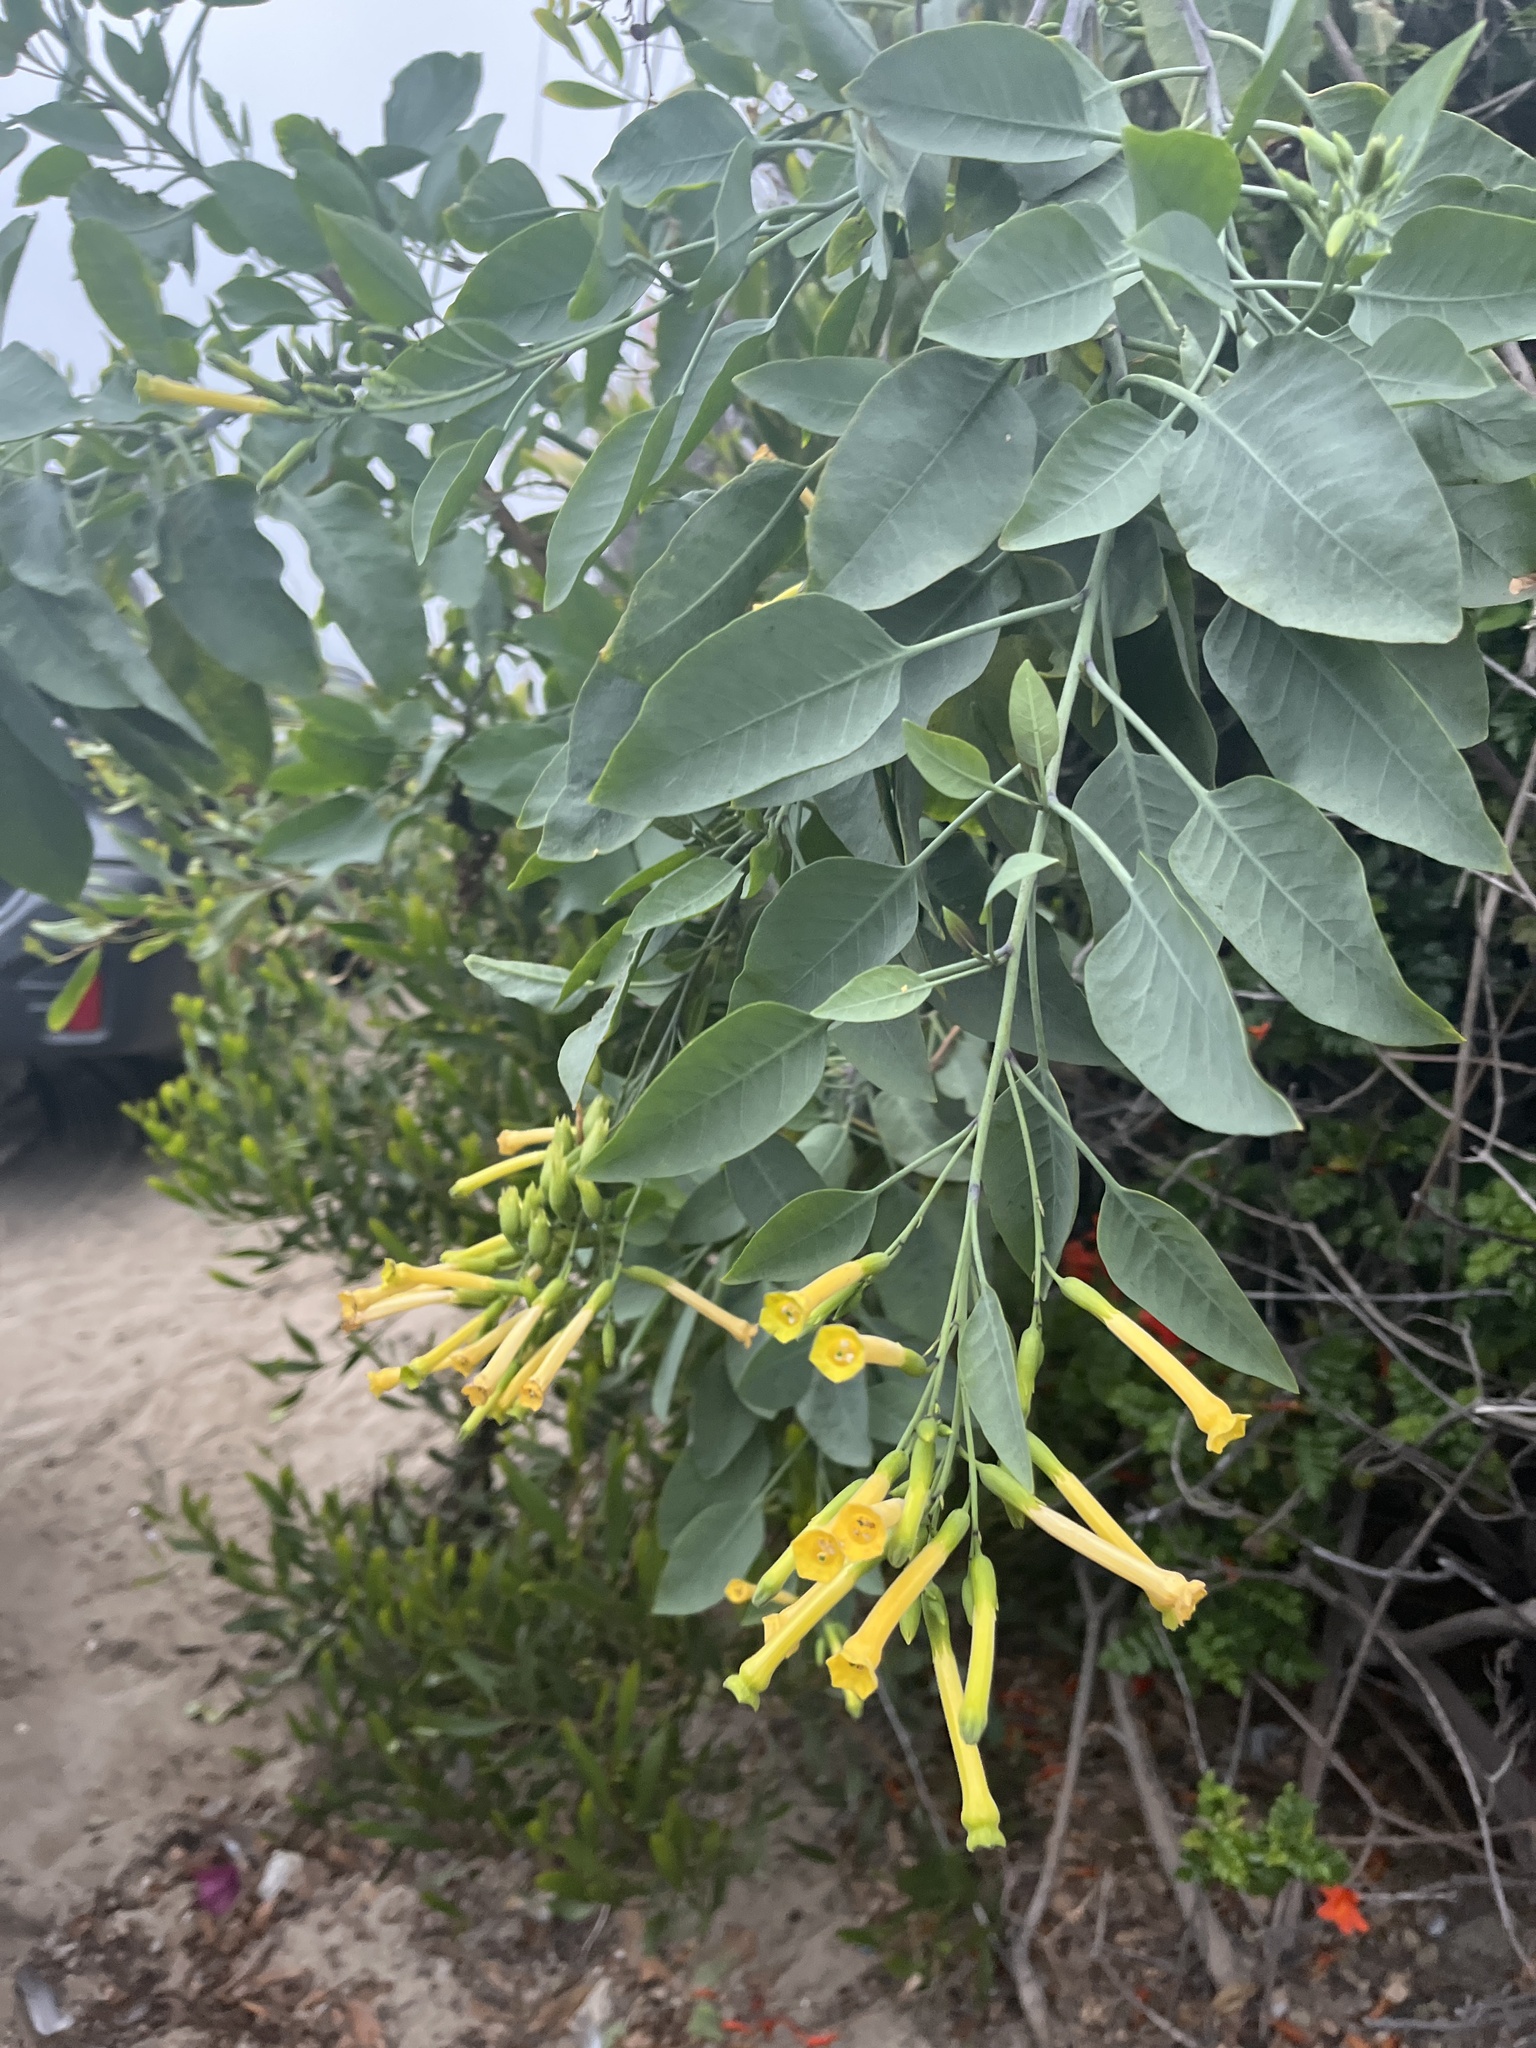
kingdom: Plantae
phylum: Tracheophyta
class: Magnoliopsida
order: Solanales
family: Solanaceae
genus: Nicotiana
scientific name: Nicotiana glauca
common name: Tree tobacco
